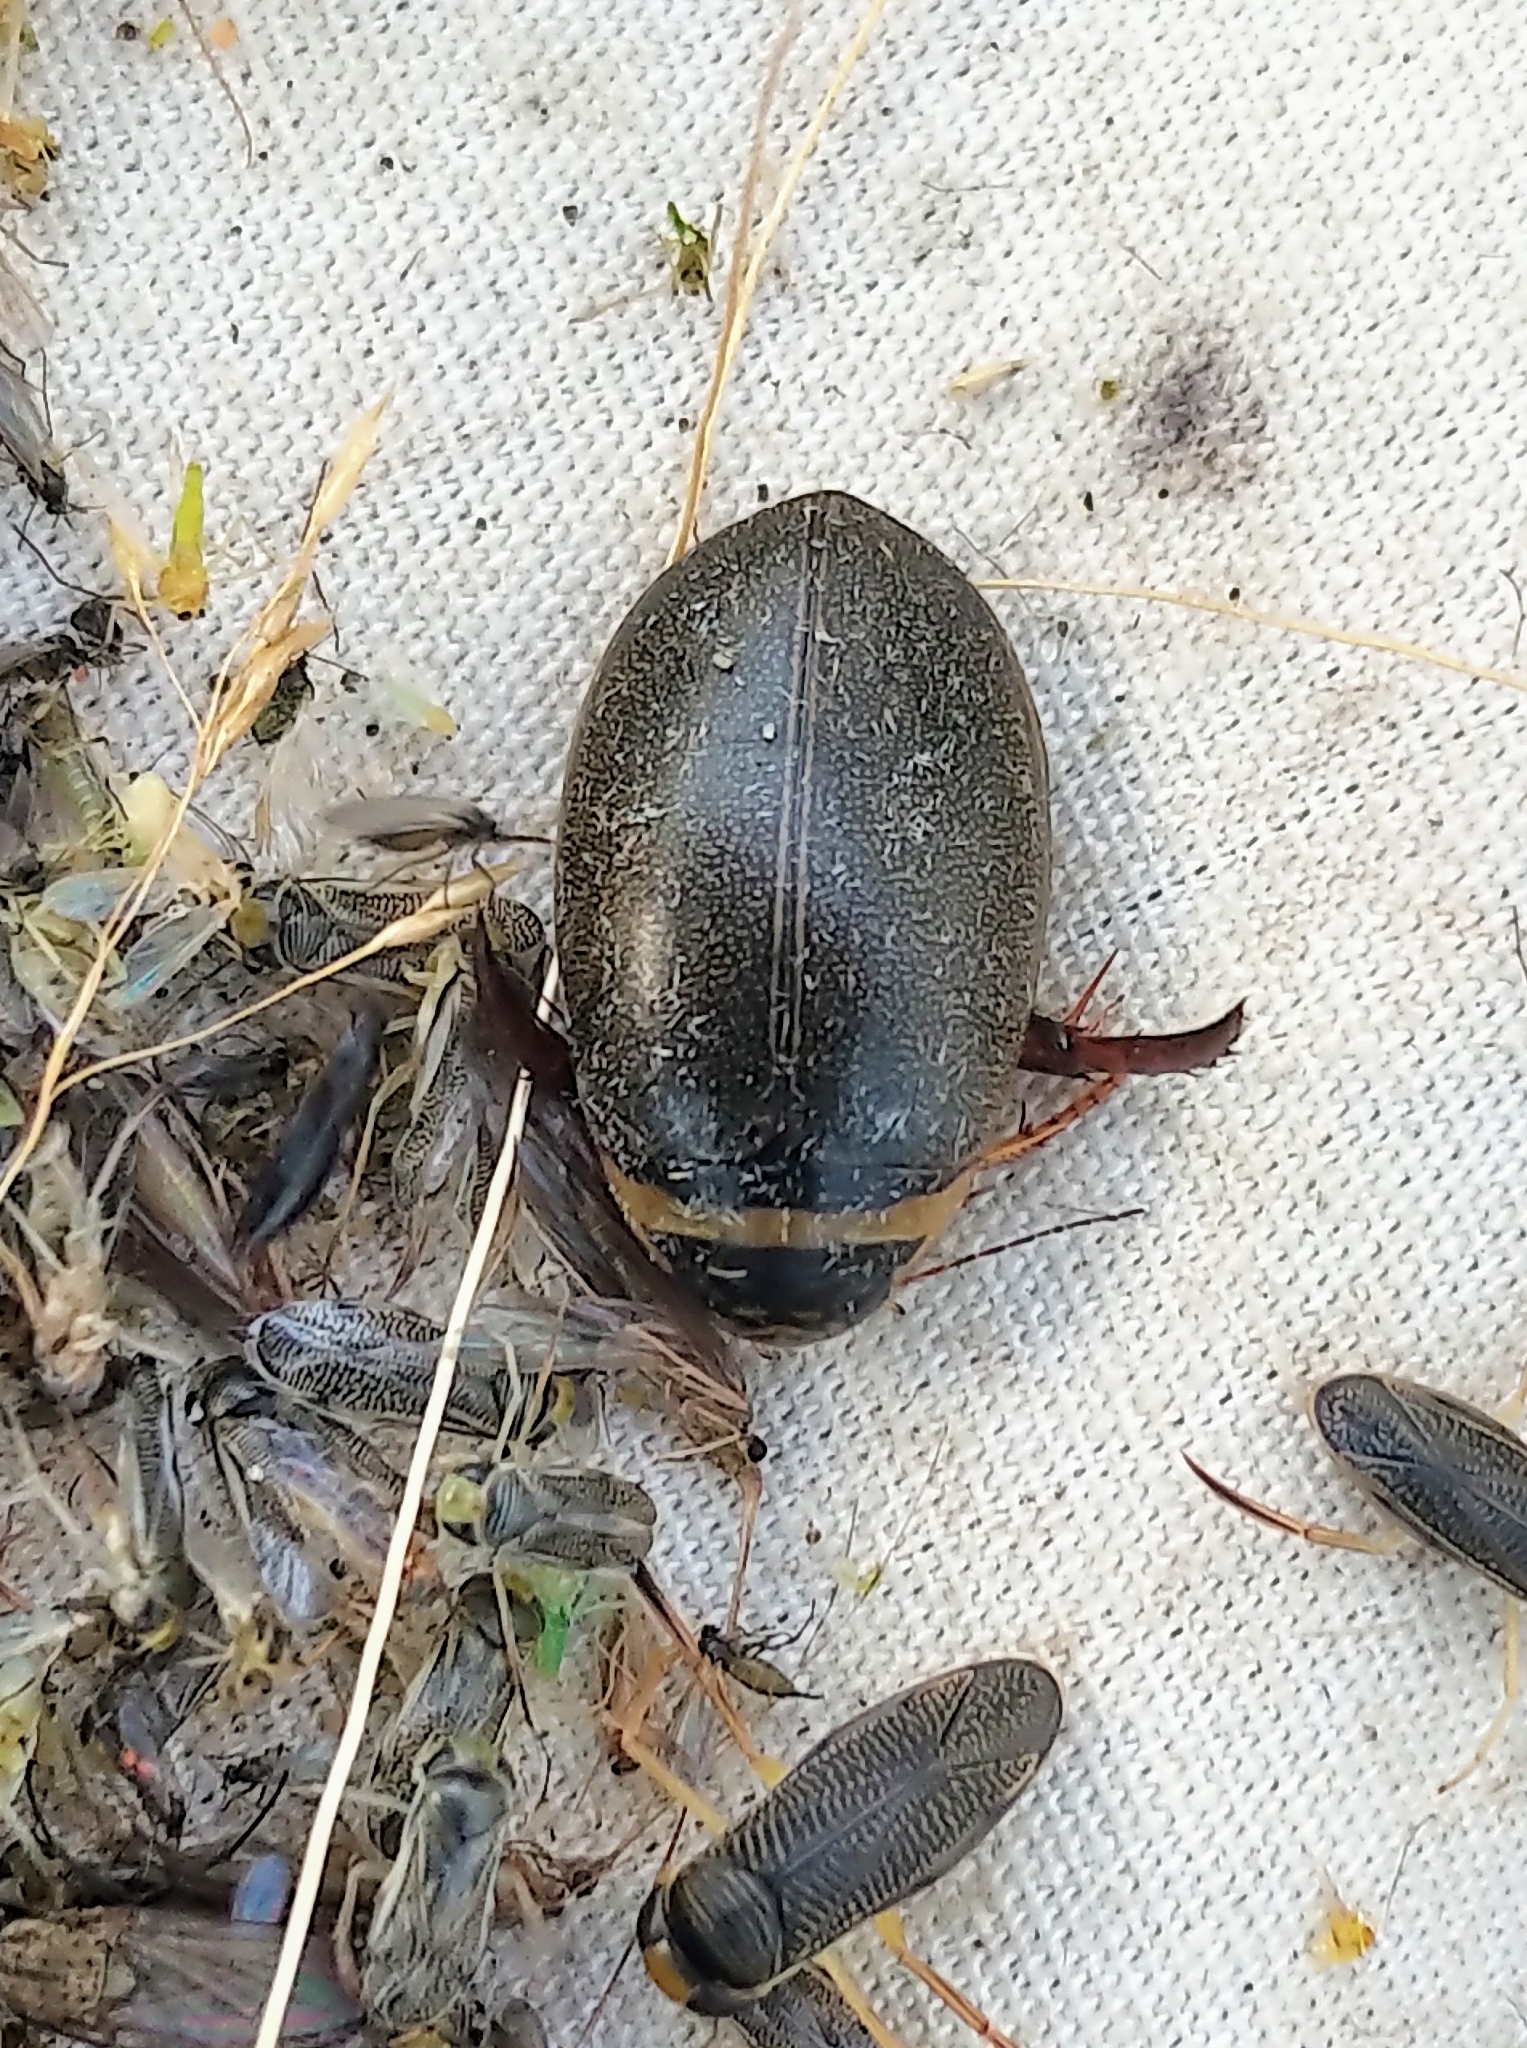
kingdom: Animalia
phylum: Arthropoda
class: Insecta
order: Coleoptera
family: Dytiscidae
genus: Graphoderus
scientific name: Graphoderus occidentalis
